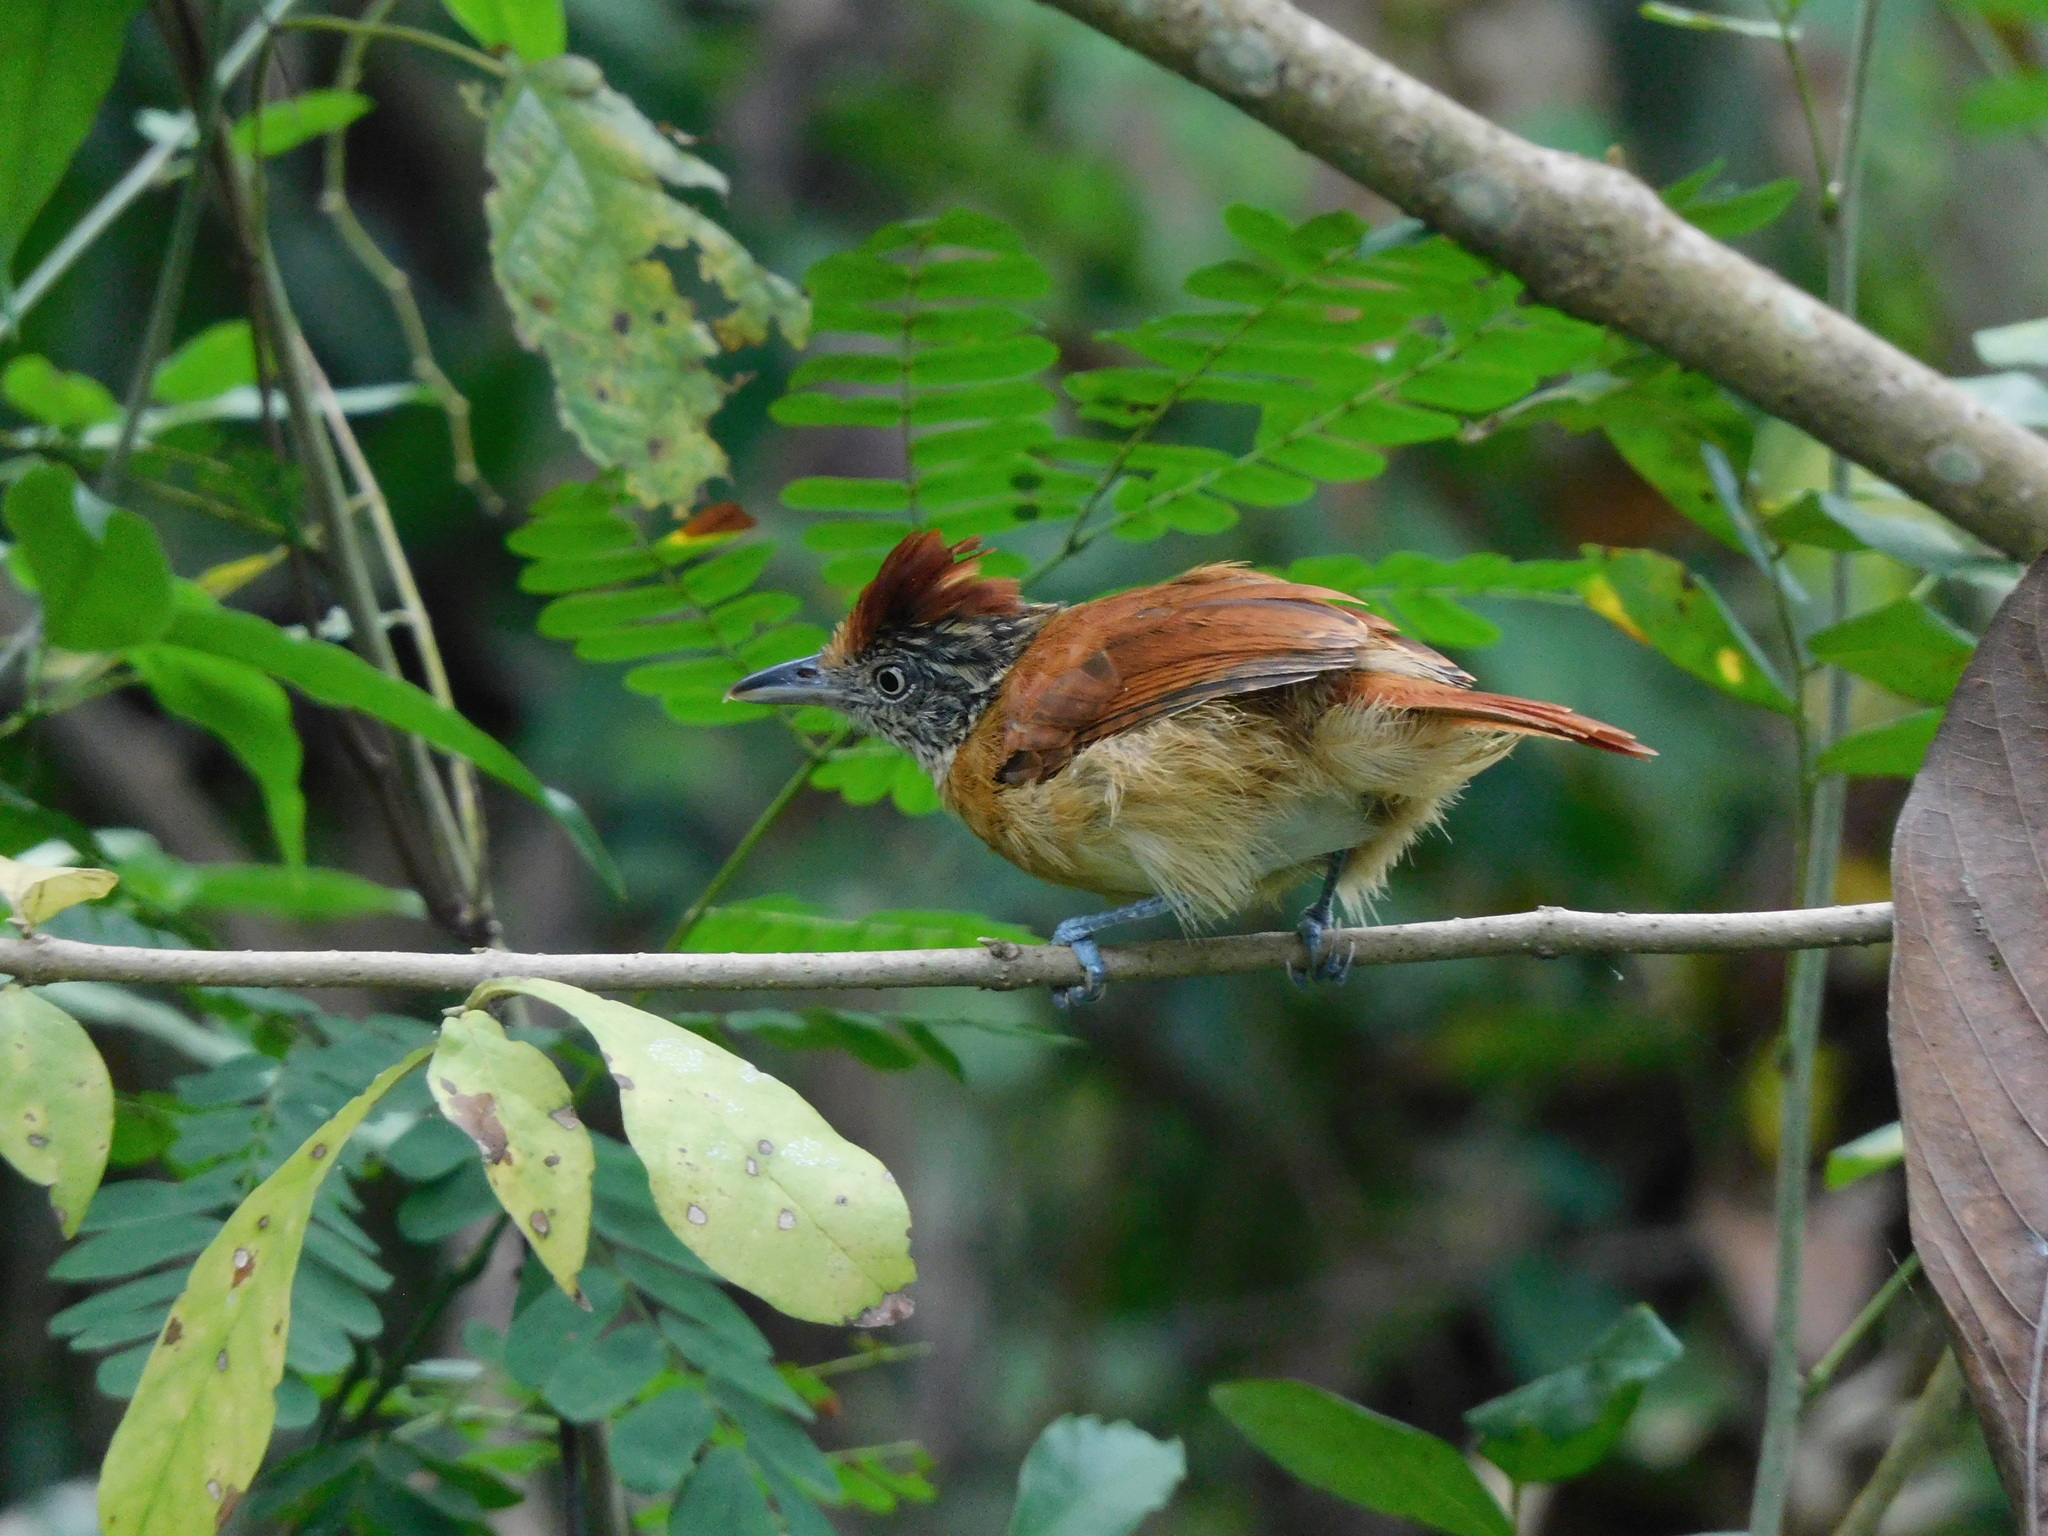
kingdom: Animalia
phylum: Chordata
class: Aves
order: Passeriformes
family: Thamnophilidae
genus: Thamnophilus
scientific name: Thamnophilus doliatus
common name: Barred antshrike
